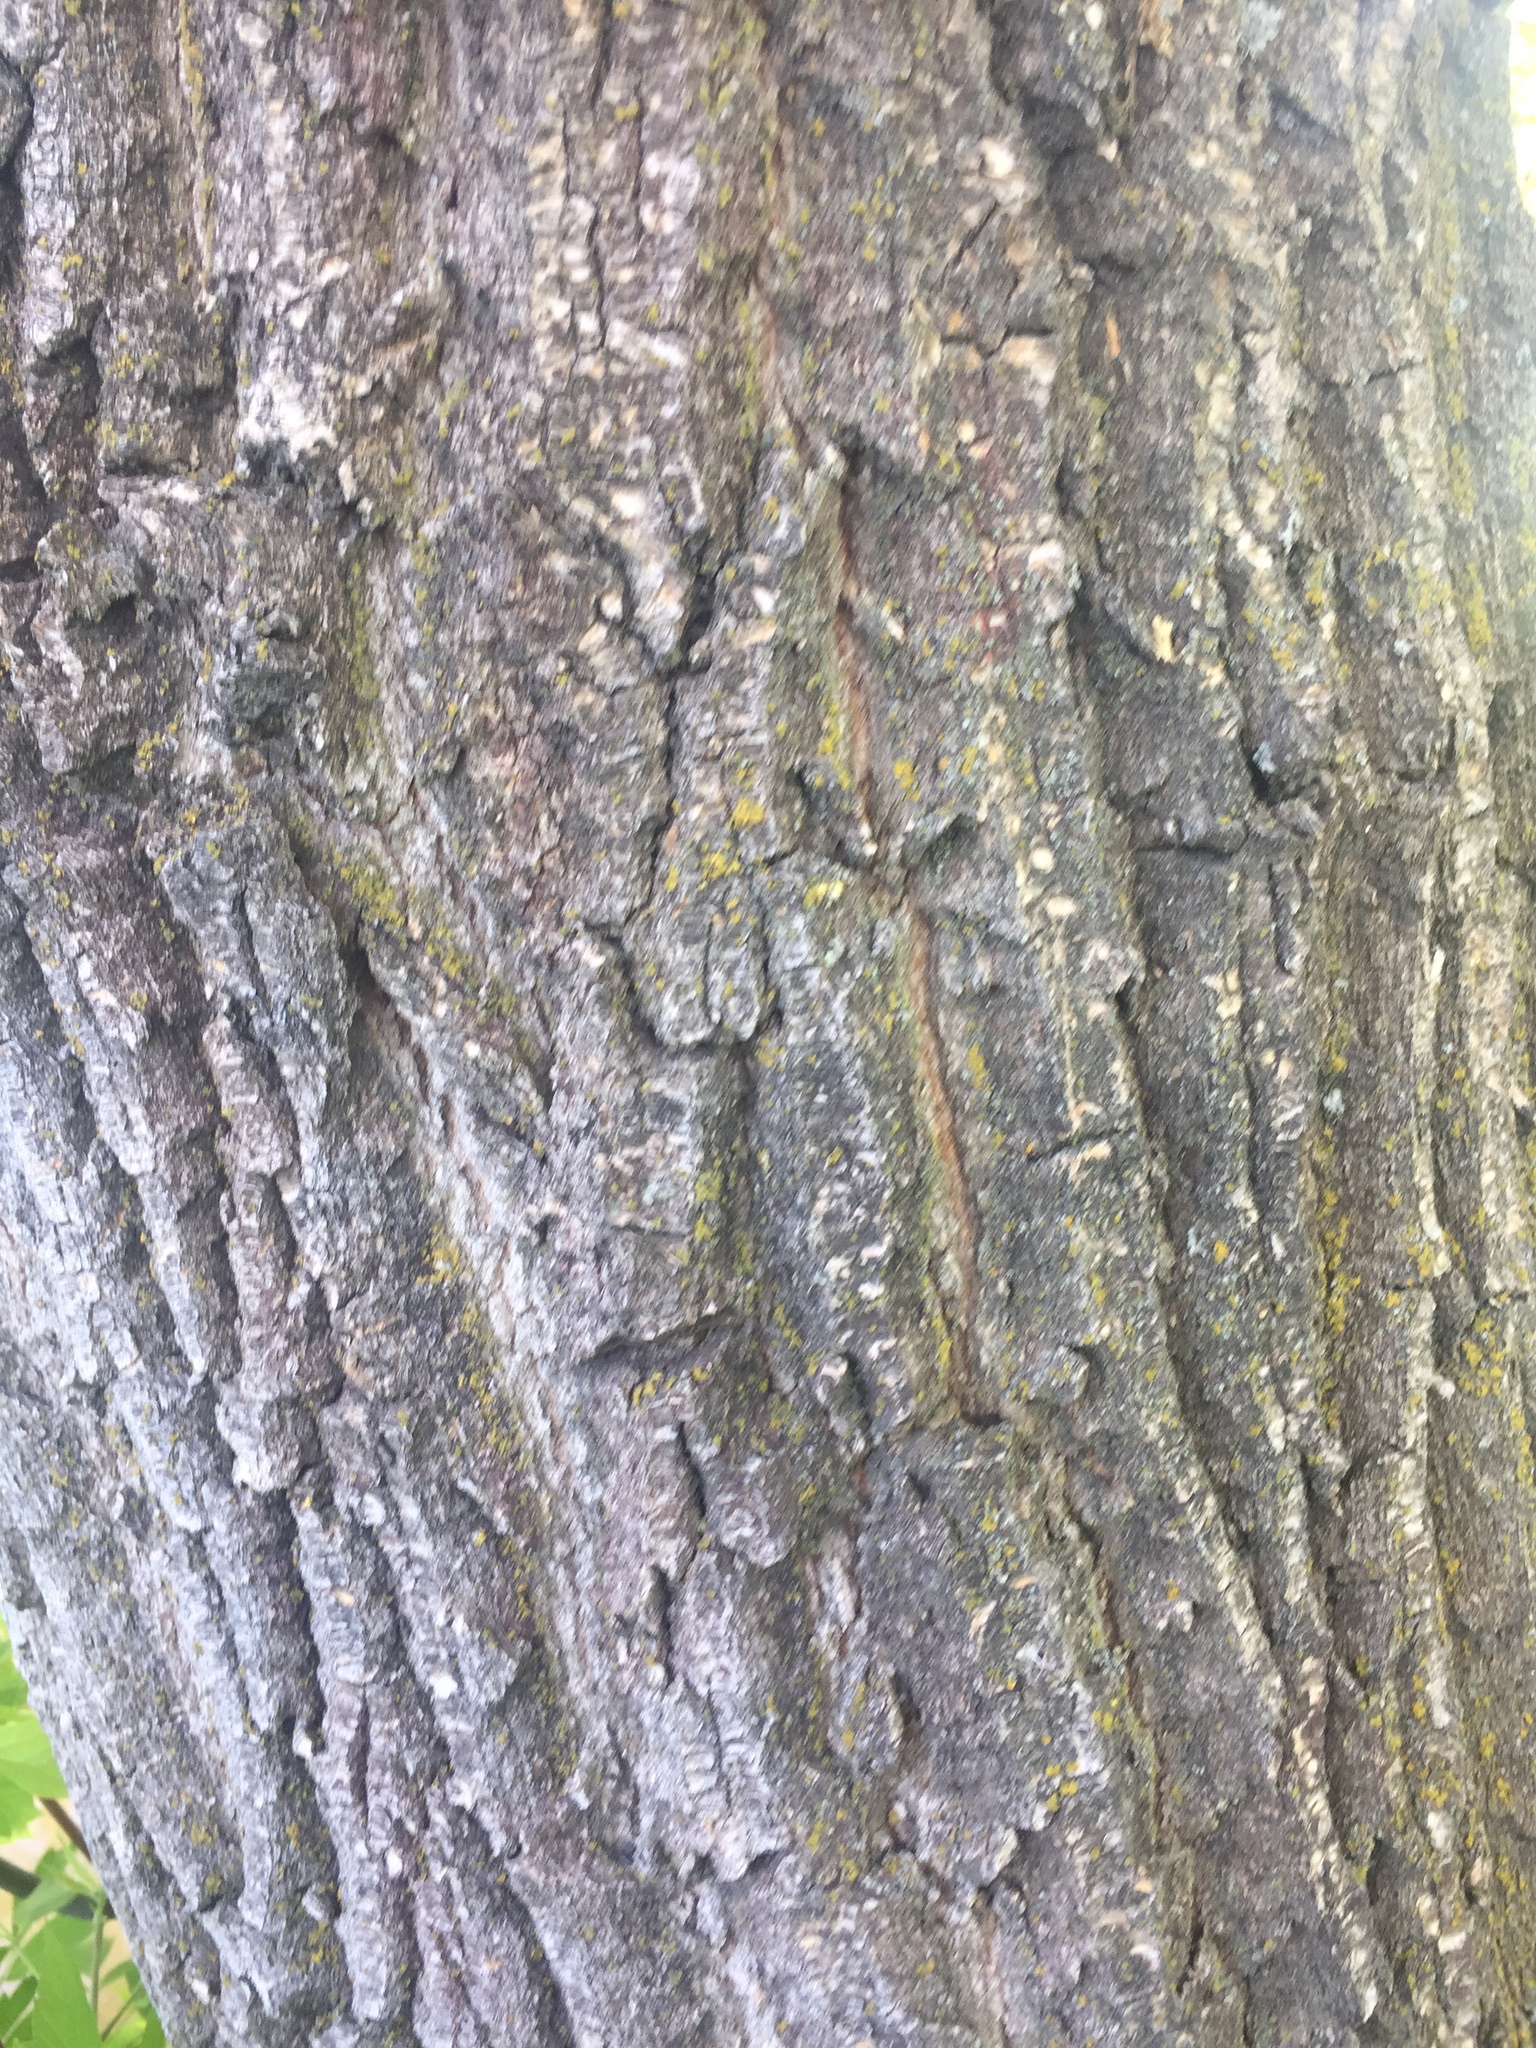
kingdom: Plantae
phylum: Tracheophyta
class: Magnoliopsida
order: Sapindales
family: Sapindaceae
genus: Acer
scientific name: Acer negundo
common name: Ashleaf maple
